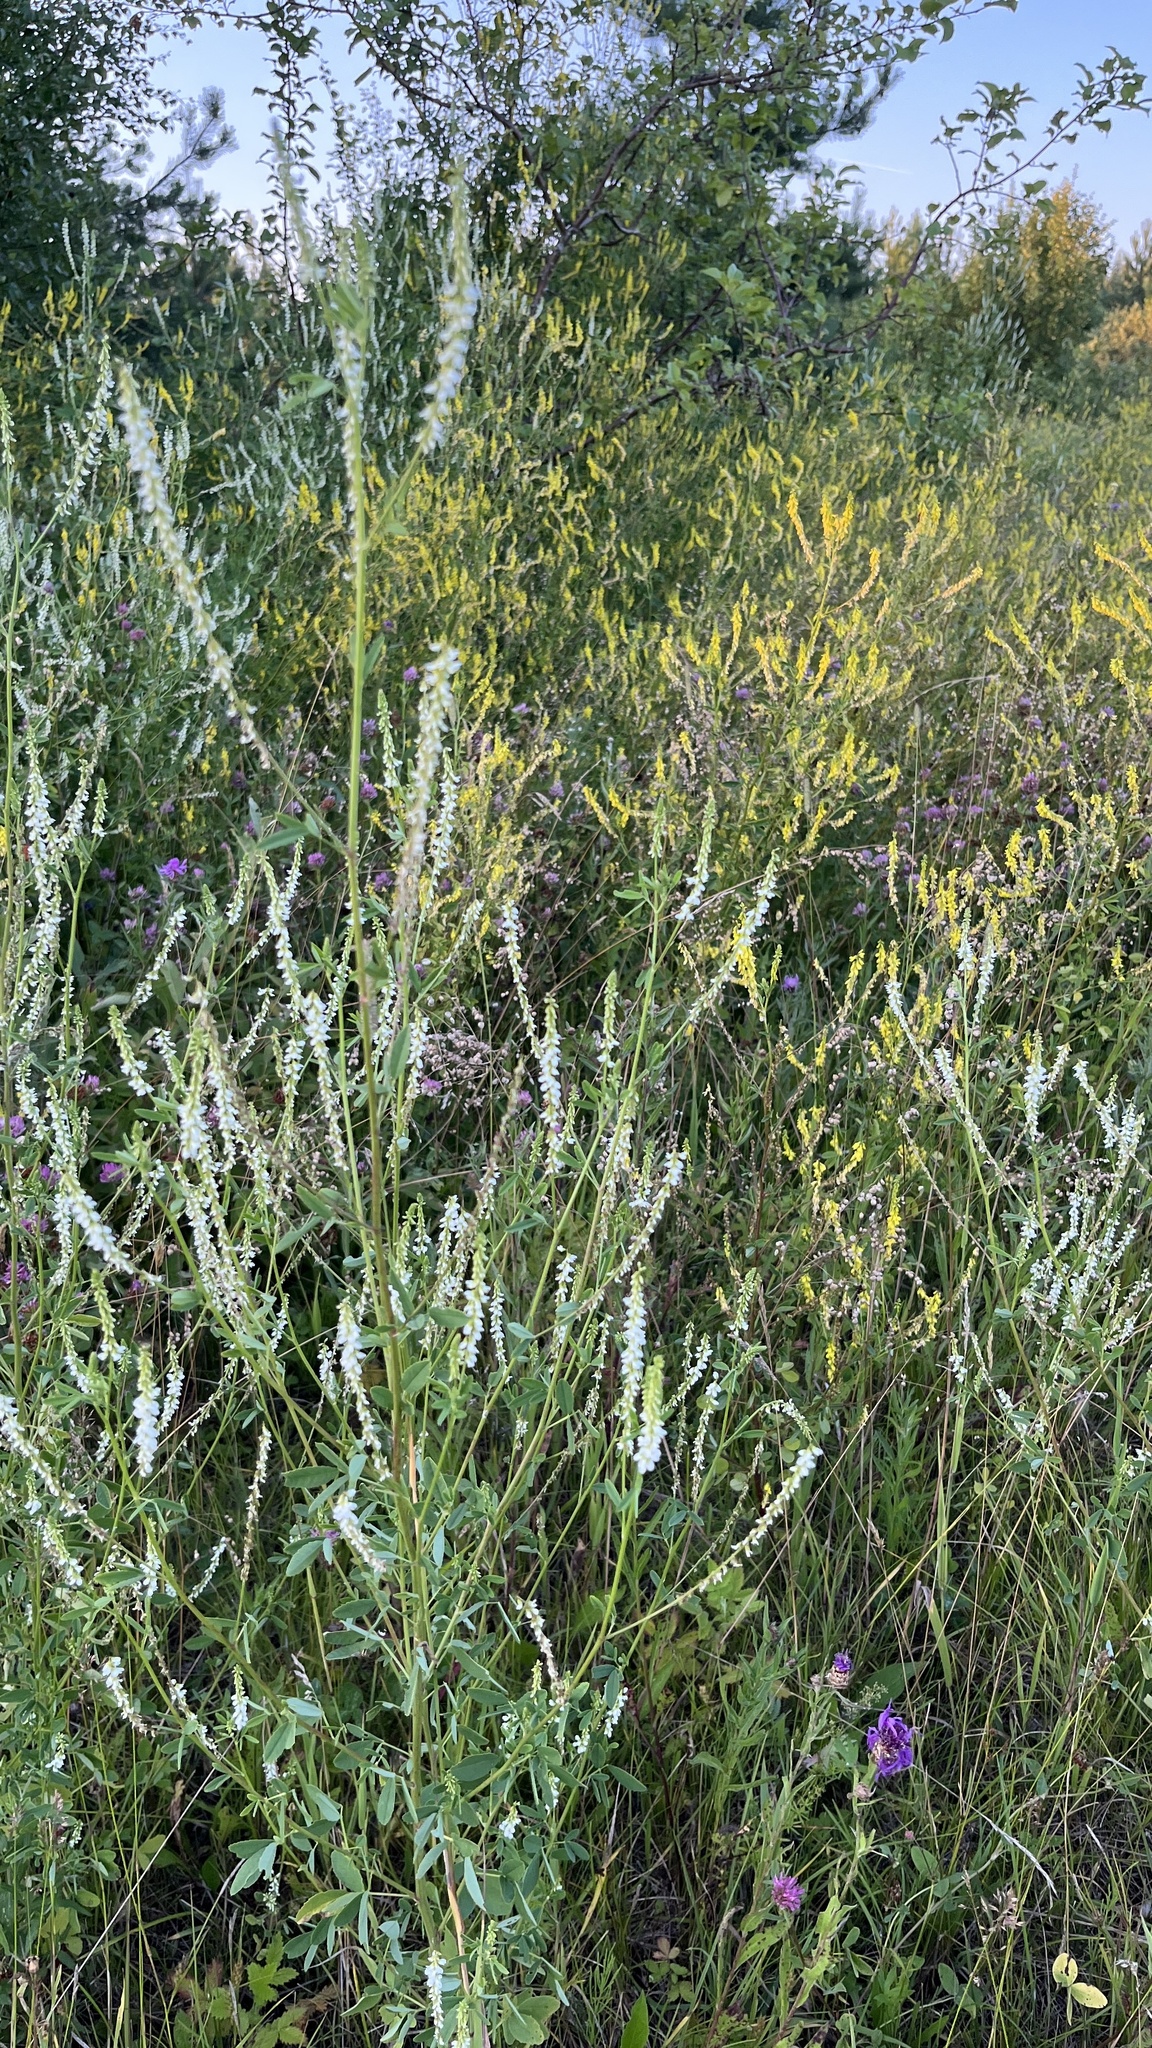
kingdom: Plantae
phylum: Tracheophyta
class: Magnoliopsida
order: Fabales
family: Fabaceae
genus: Melilotus
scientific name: Melilotus albus
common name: White melilot
